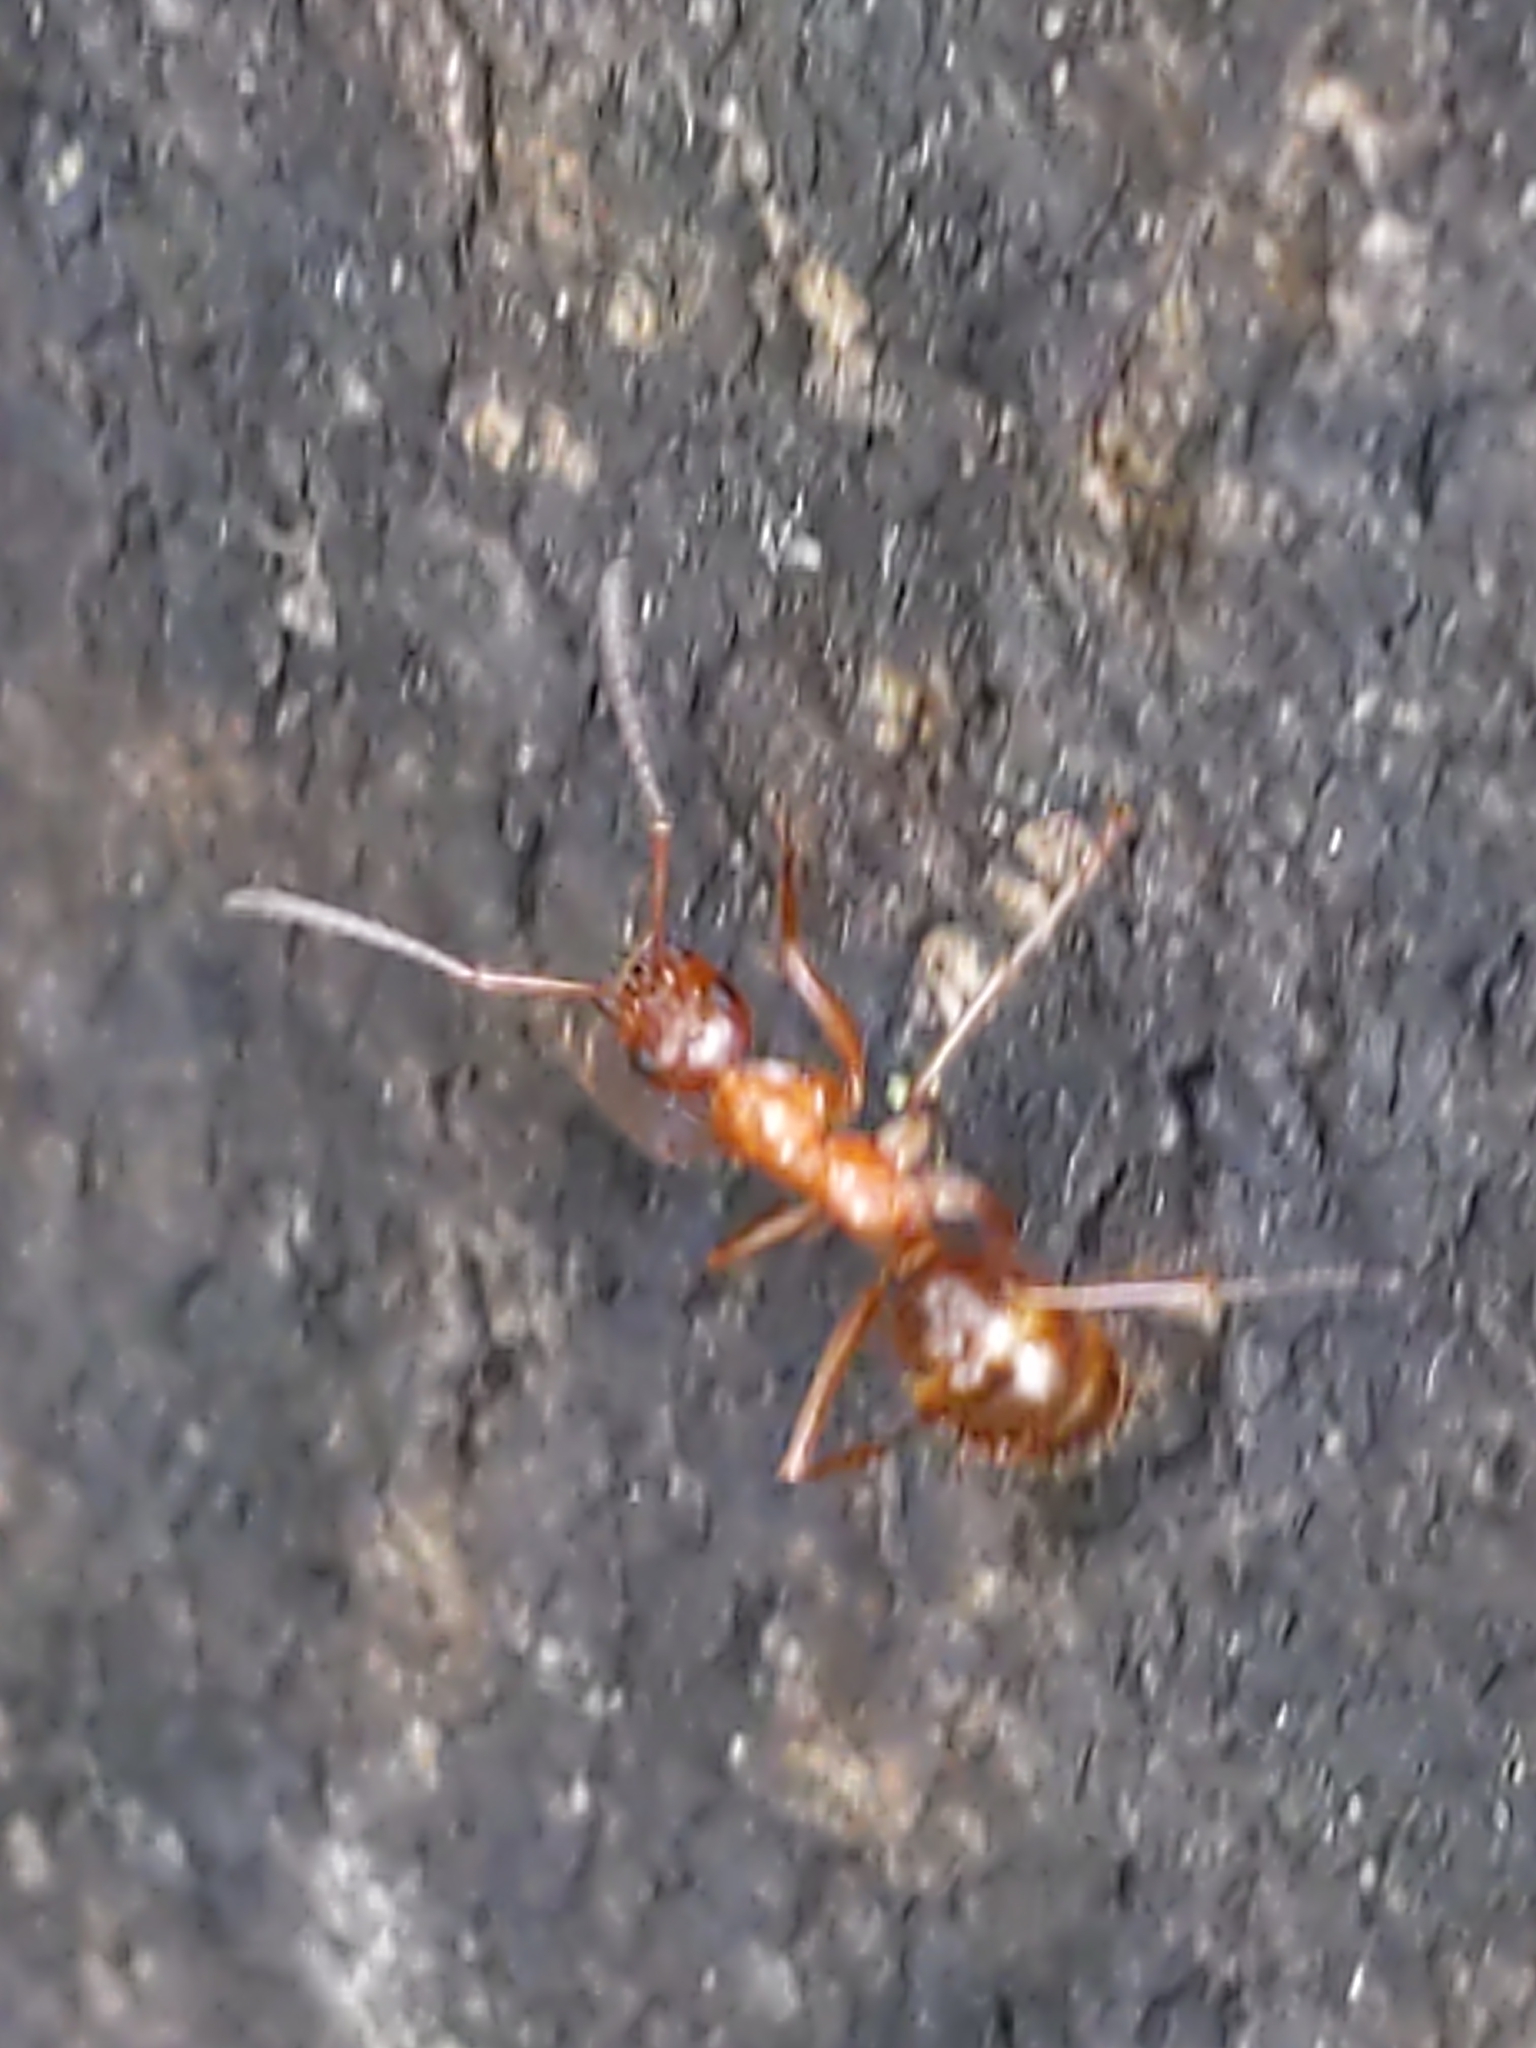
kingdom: Animalia
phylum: Arthropoda
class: Insecta
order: Hymenoptera
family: Formicidae
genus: Formica
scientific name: Formica
